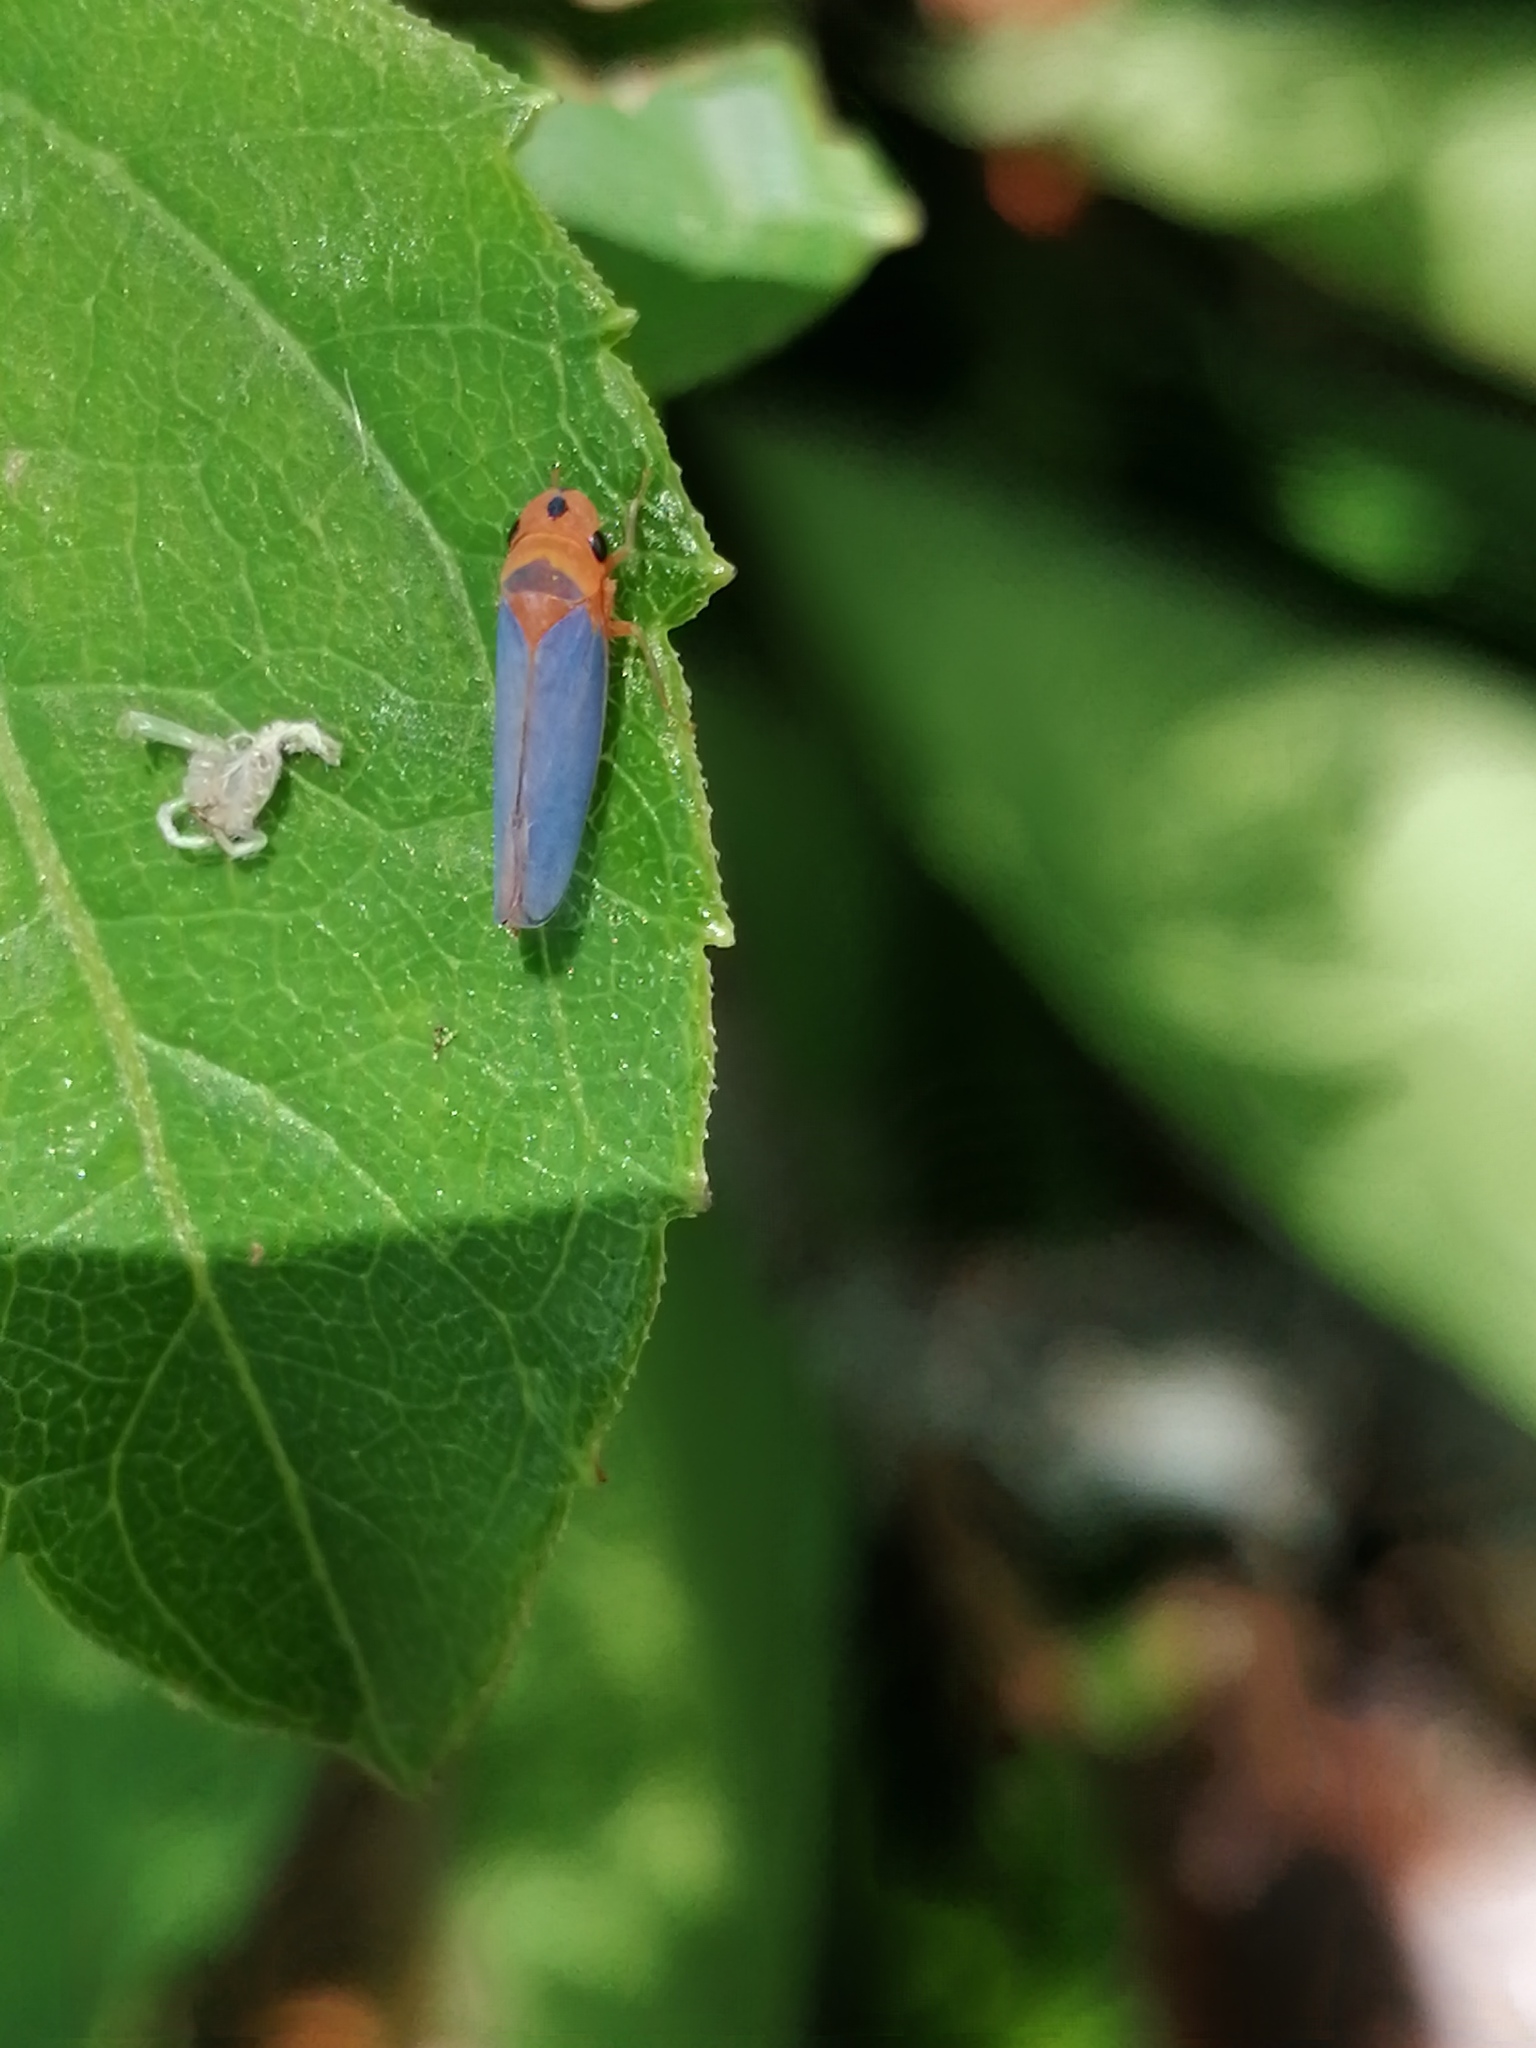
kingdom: Animalia
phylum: Arthropoda
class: Insecta
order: Hemiptera
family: Cicadellidae
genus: Macunolla
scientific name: Macunolla ventralis
